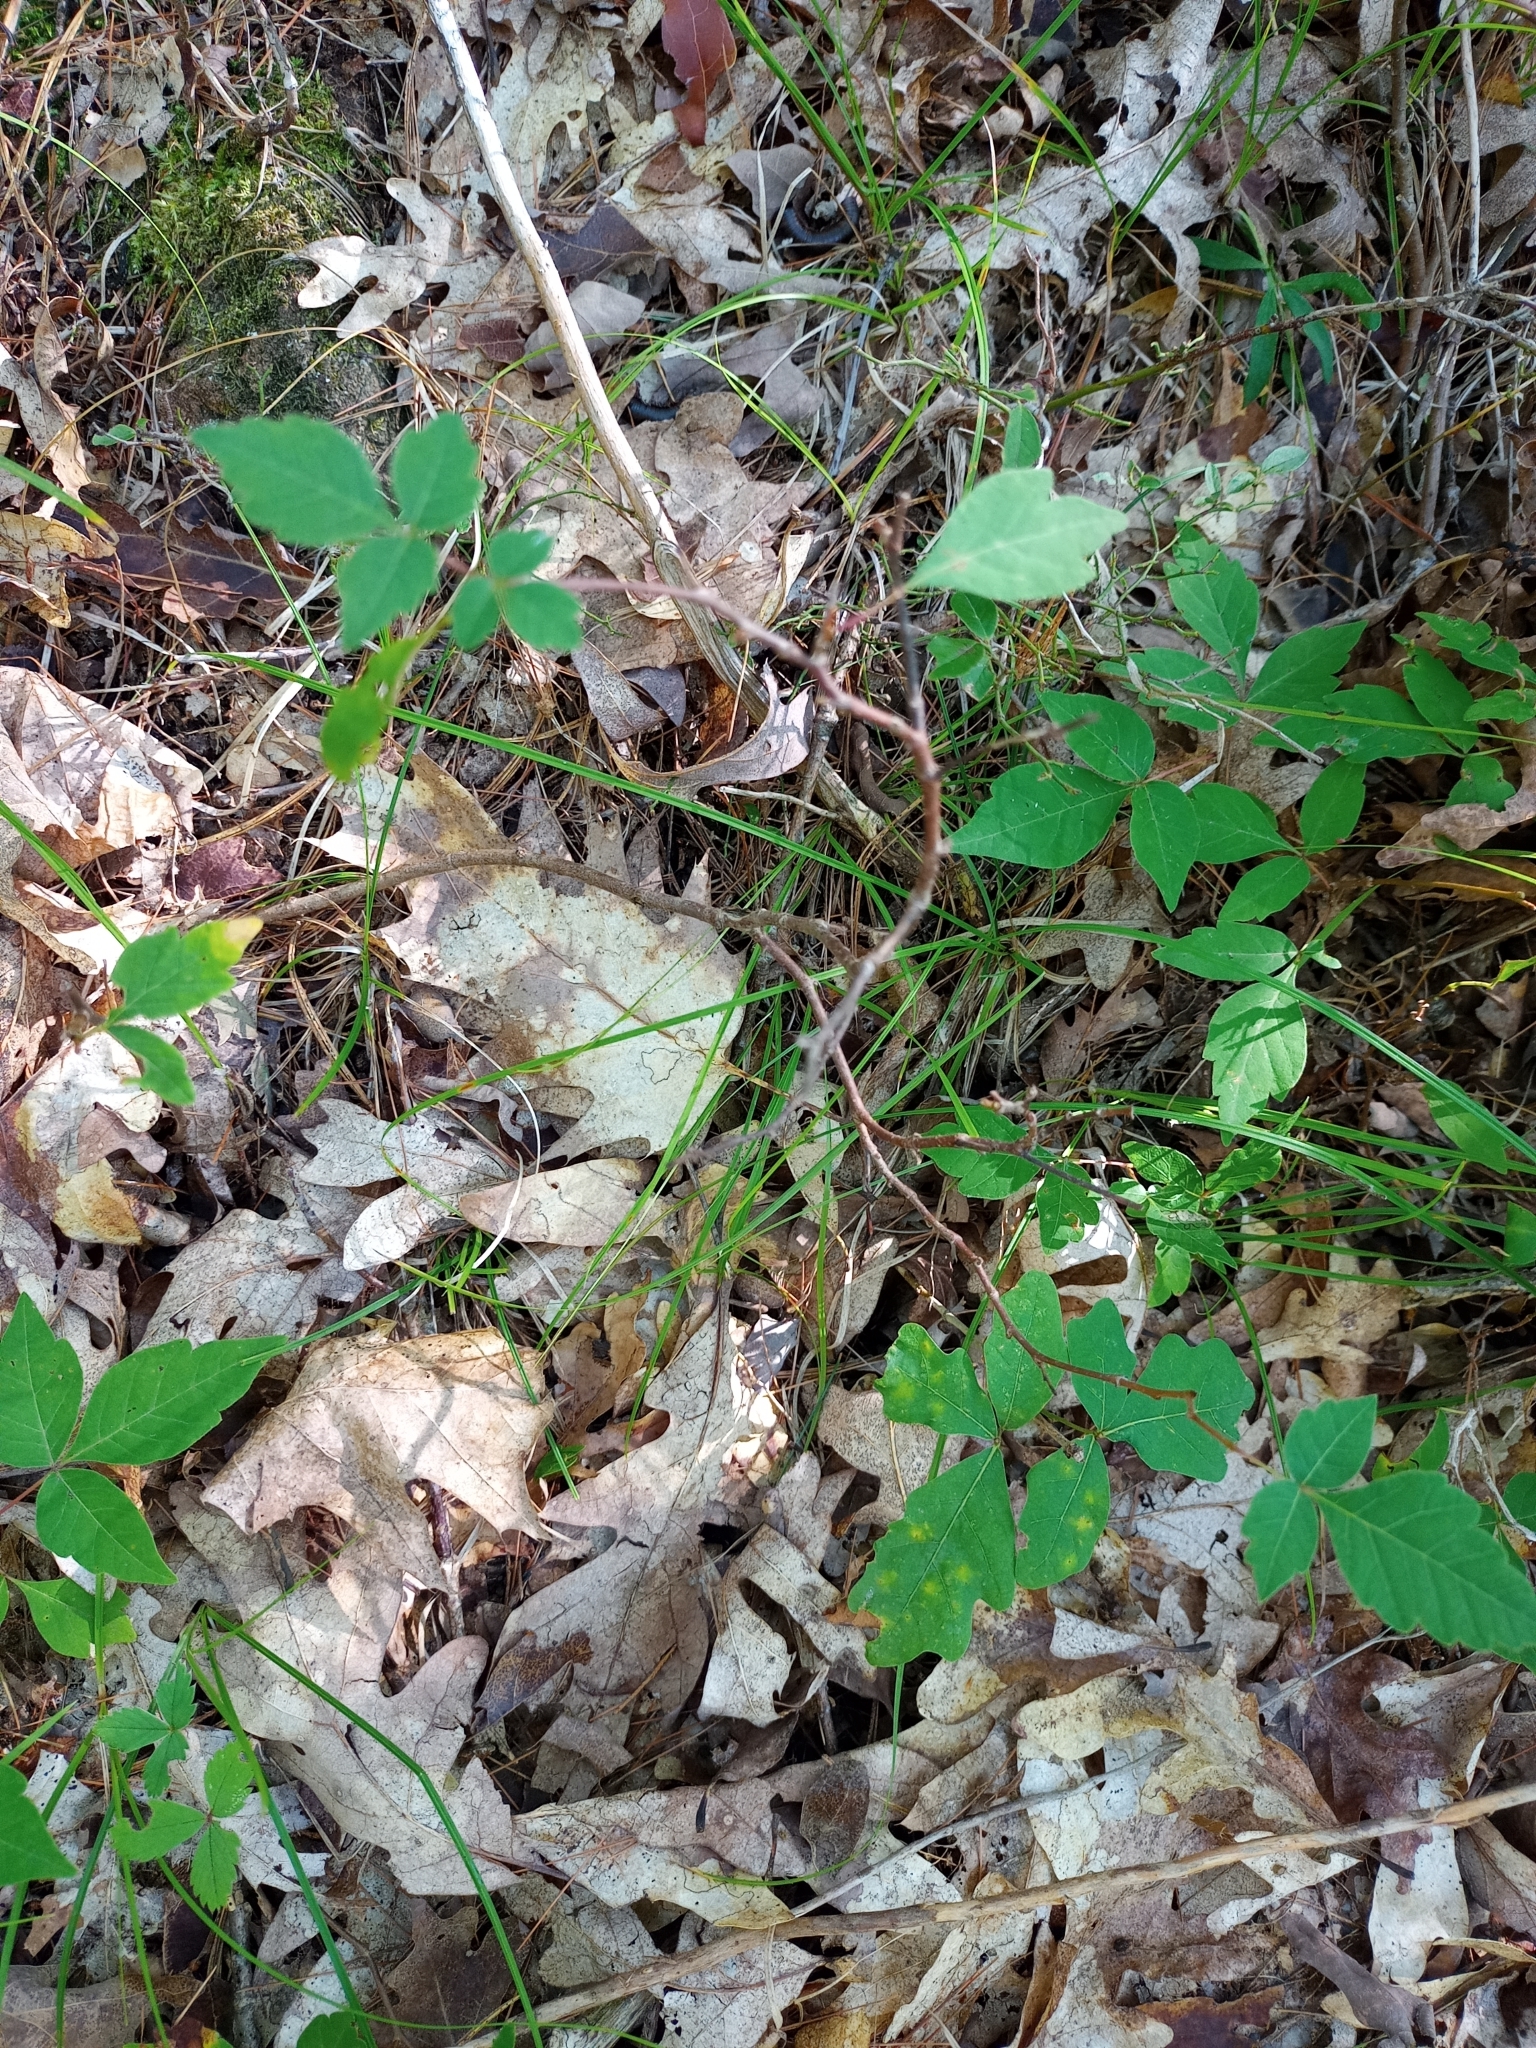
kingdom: Plantae
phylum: Tracheophyta
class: Magnoliopsida
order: Sapindales
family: Anacardiaceae
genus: Rhus
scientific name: Rhus aromatica
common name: Aromatic sumac
